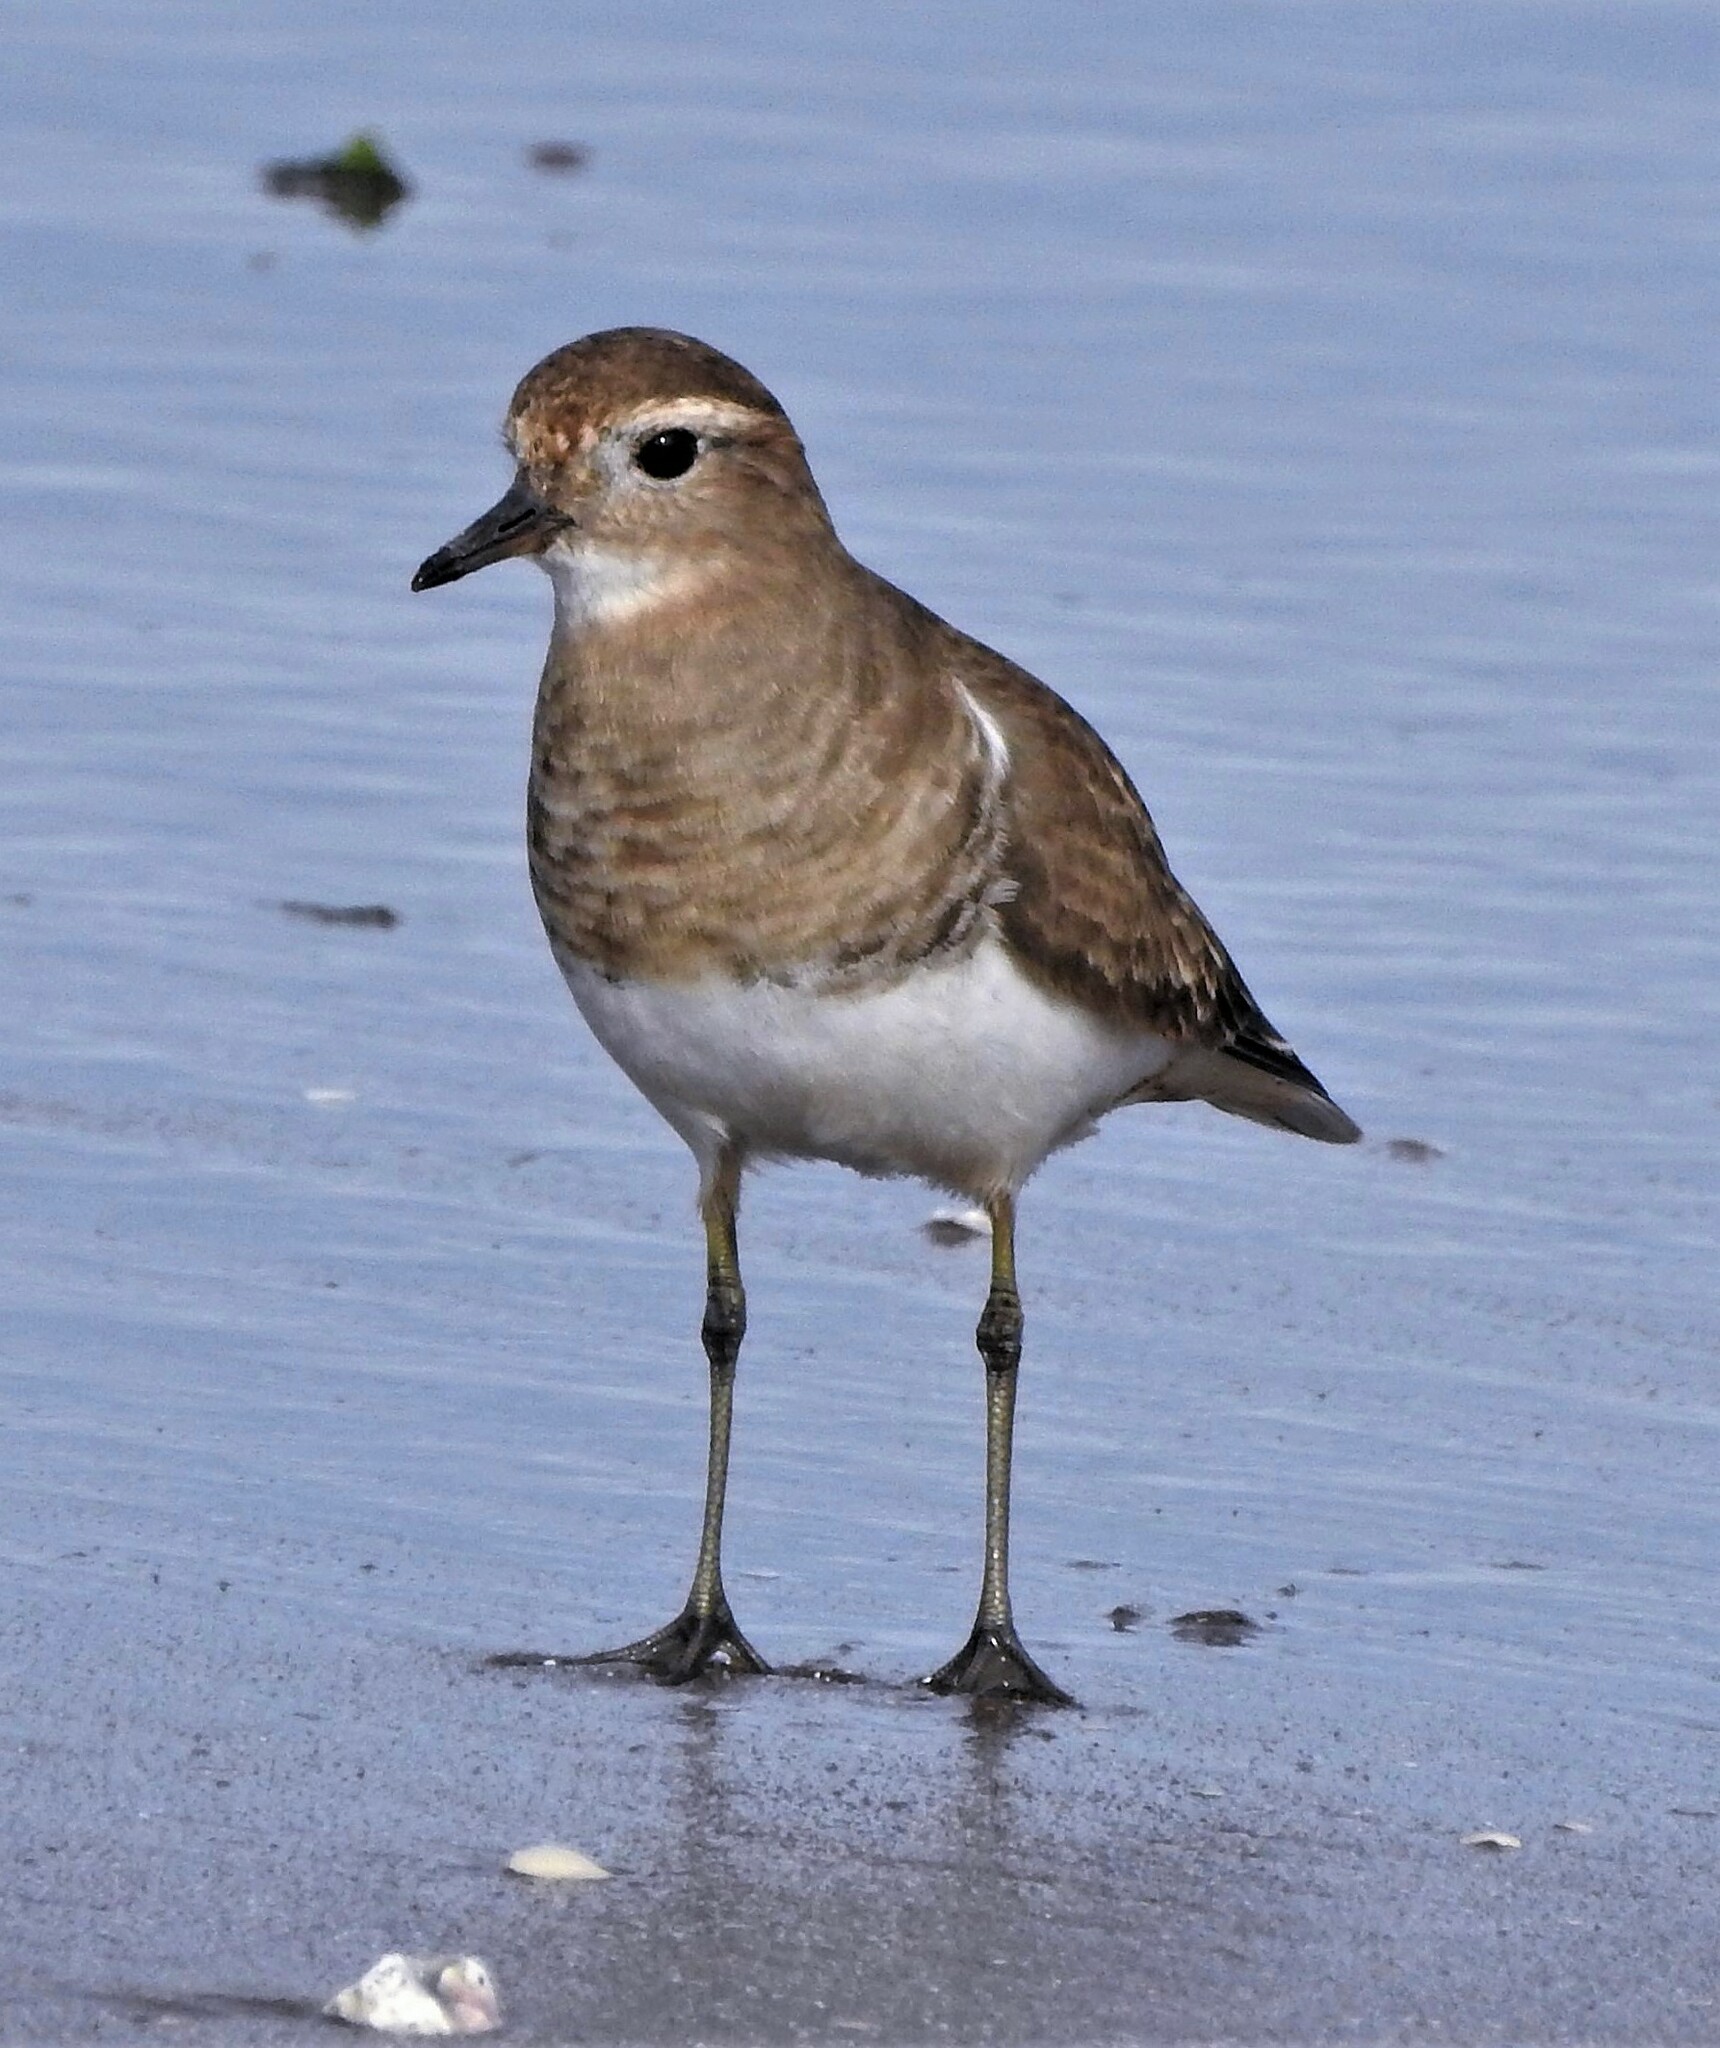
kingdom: Animalia
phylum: Chordata
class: Aves
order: Charadriiformes
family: Charadriidae
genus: Charadrius
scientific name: Charadrius modestus
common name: Rufous-chested plover
